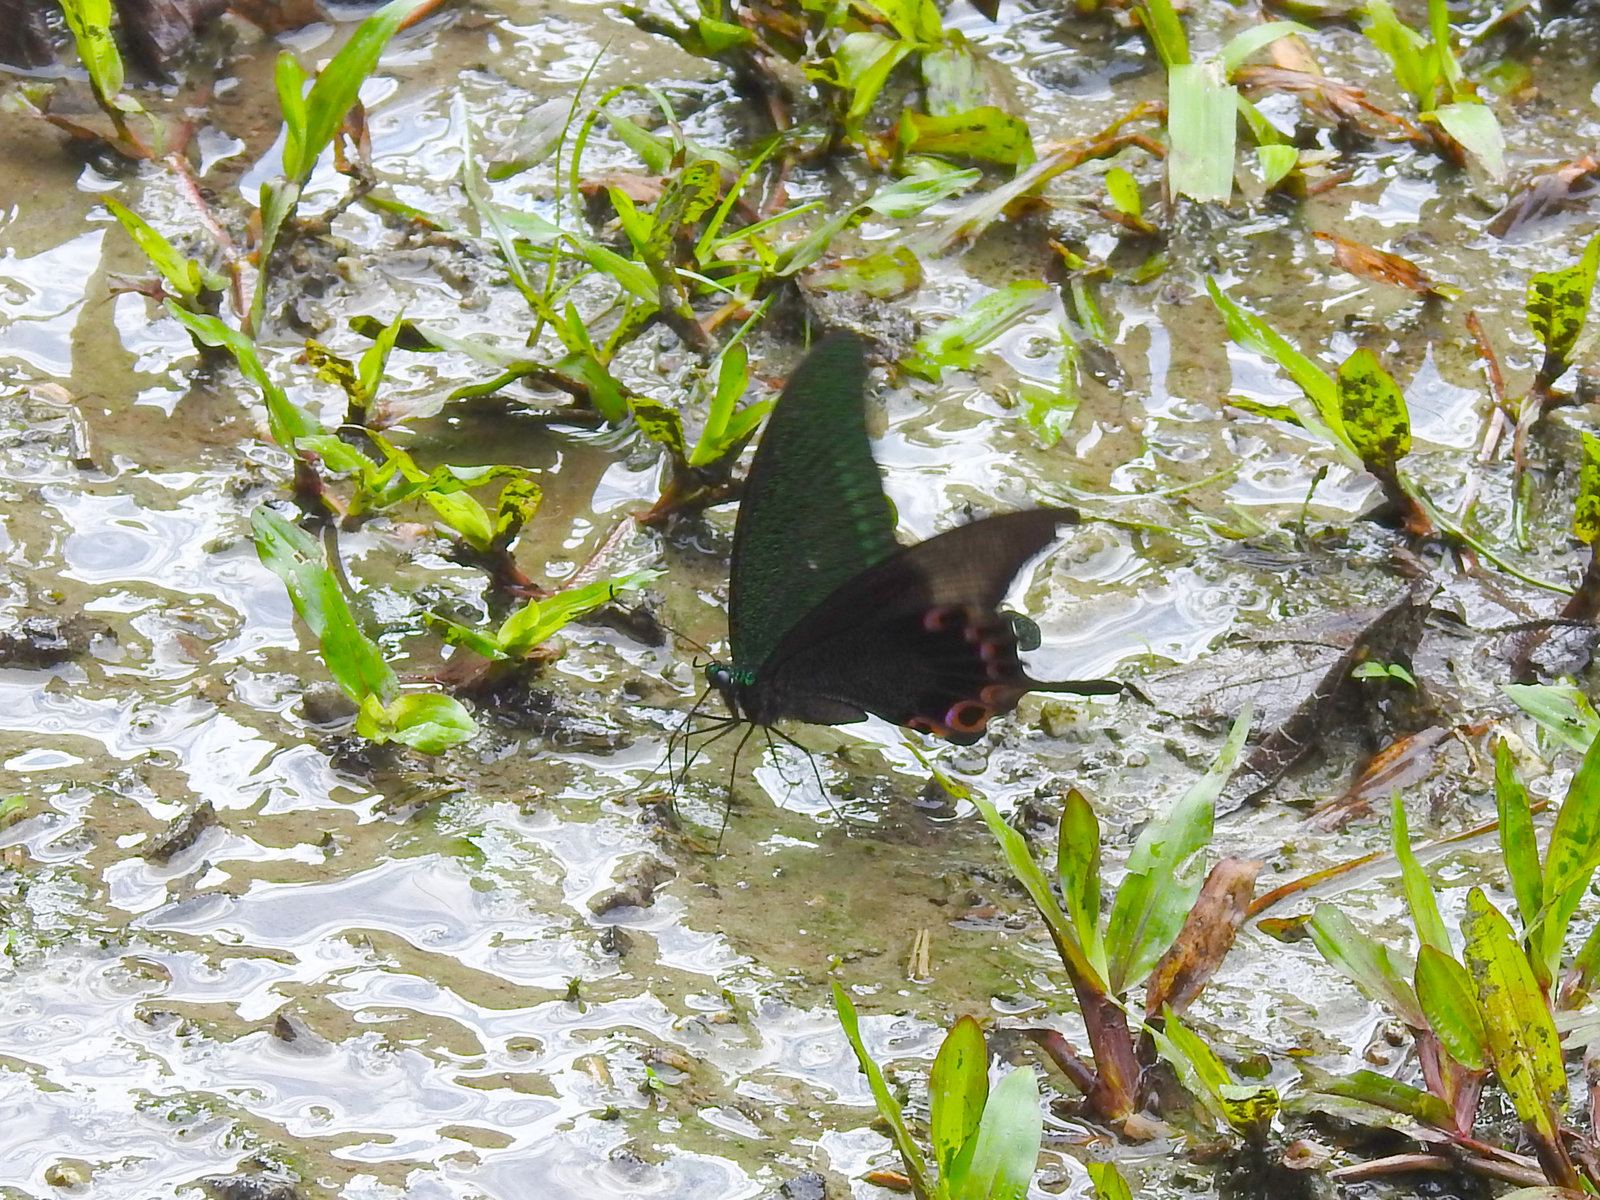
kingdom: Animalia
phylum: Arthropoda
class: Insecta
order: Lepidoptera
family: Papilionidae
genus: Papilio
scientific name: Papilio paris
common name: Paris peacock
